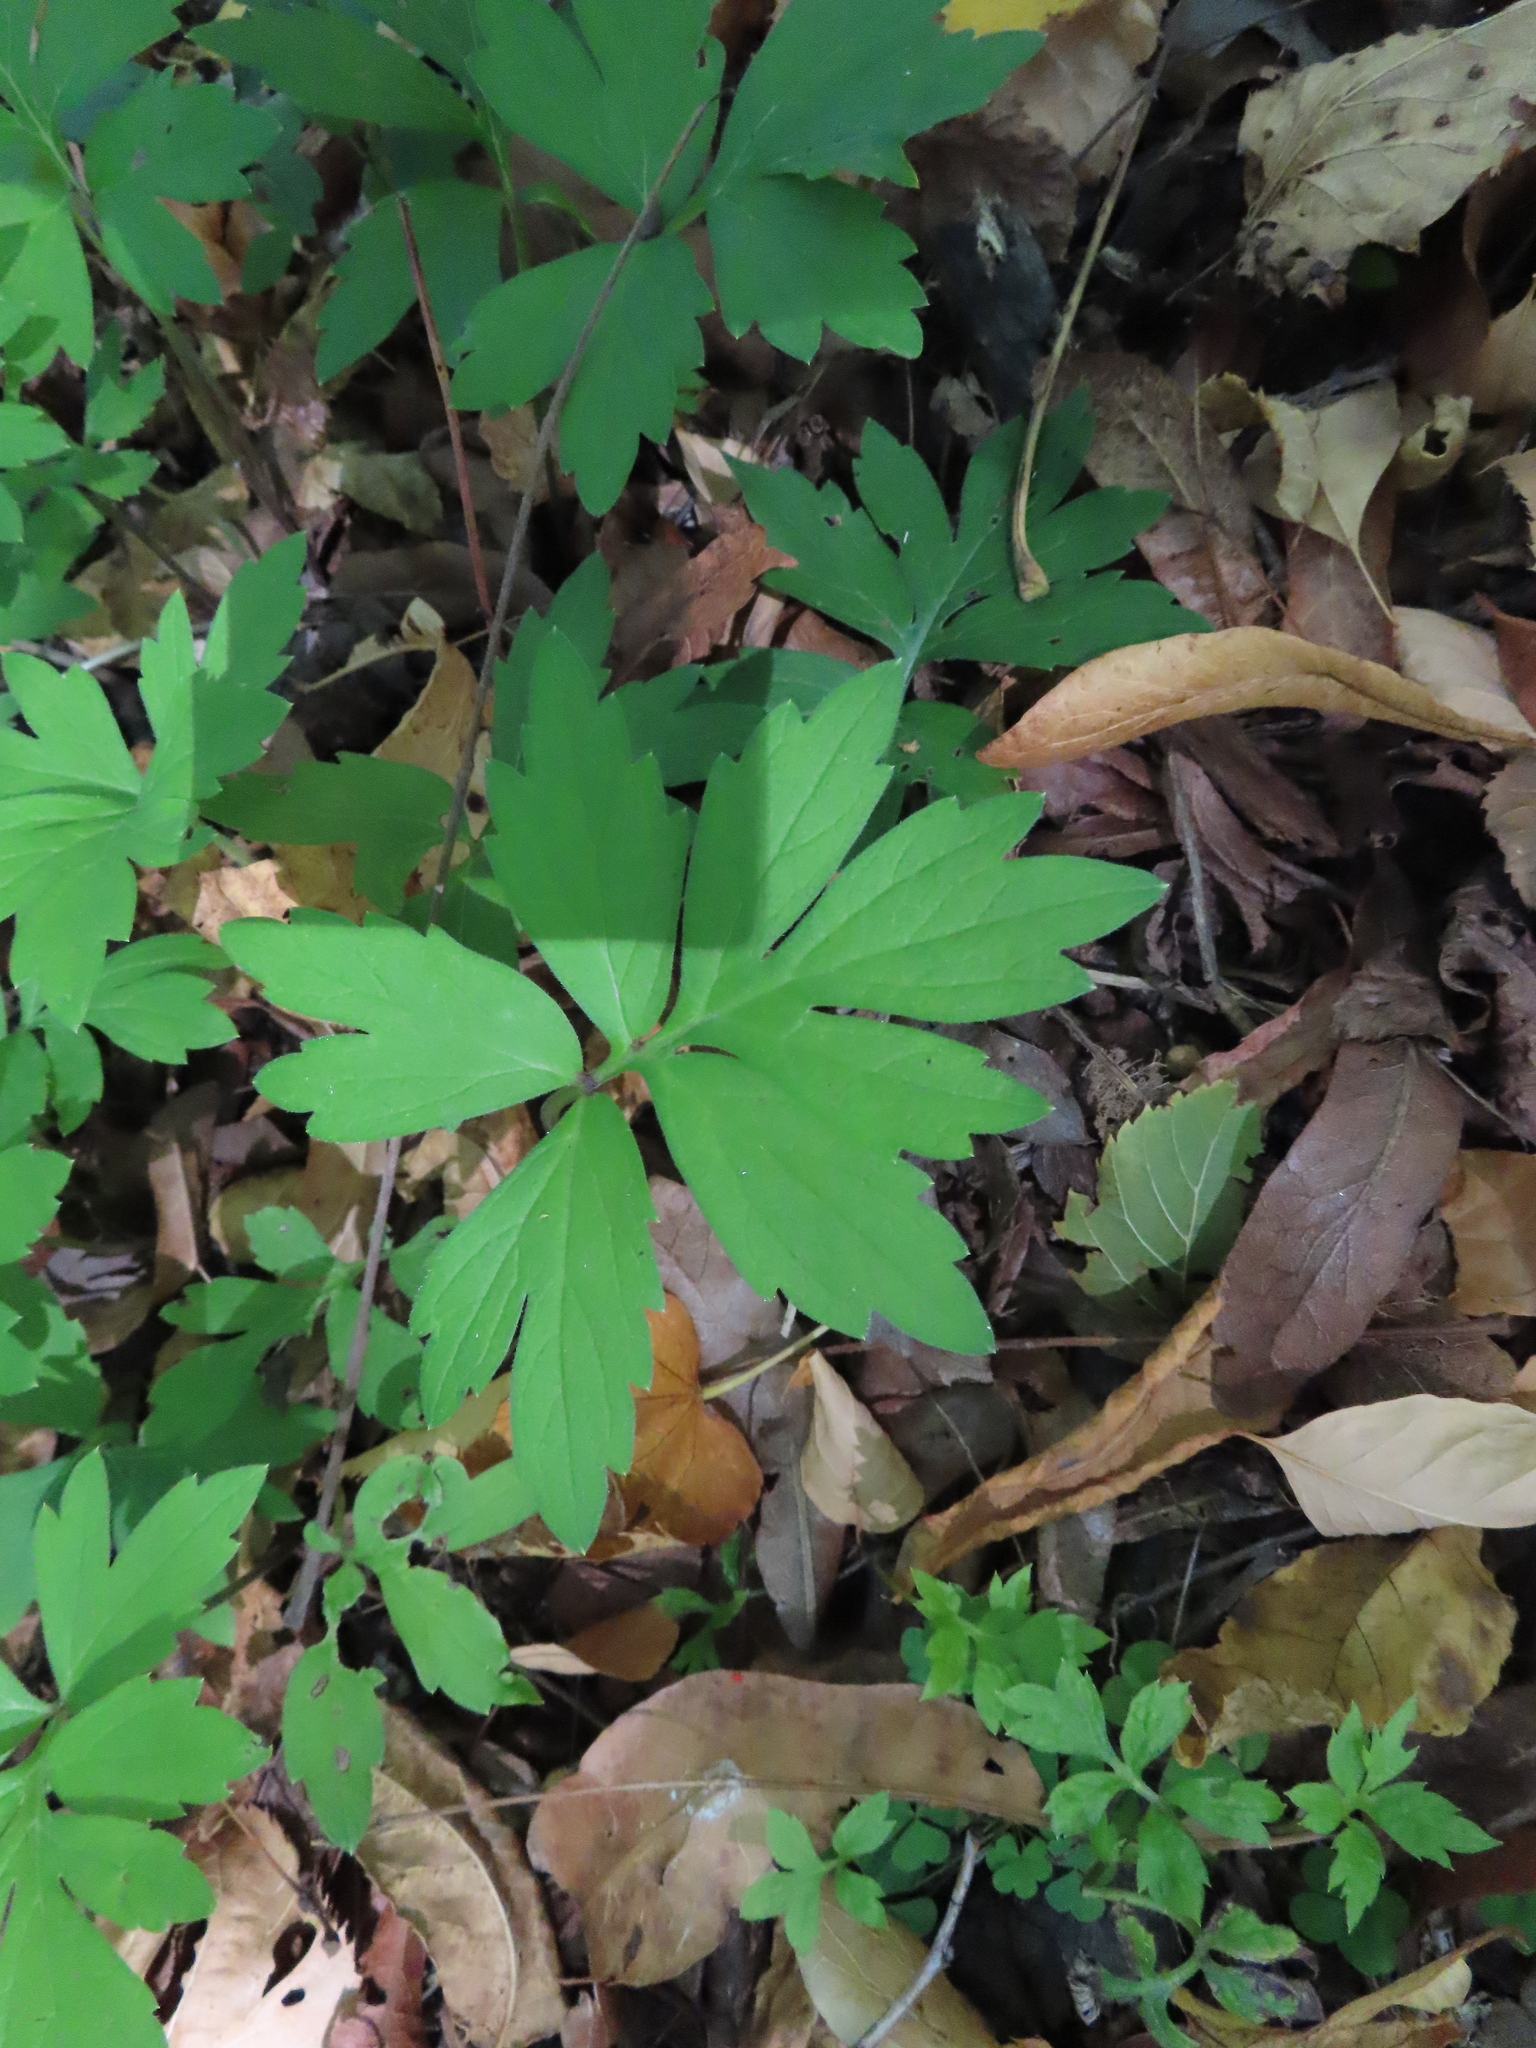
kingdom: Plantae
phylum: Tracheophyta
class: Magnoliopsida
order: Boraginales
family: Hydrophyllaceae
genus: Hydrophyllum
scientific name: Hydrophyllum virginianum
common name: Virginia waterleaf
